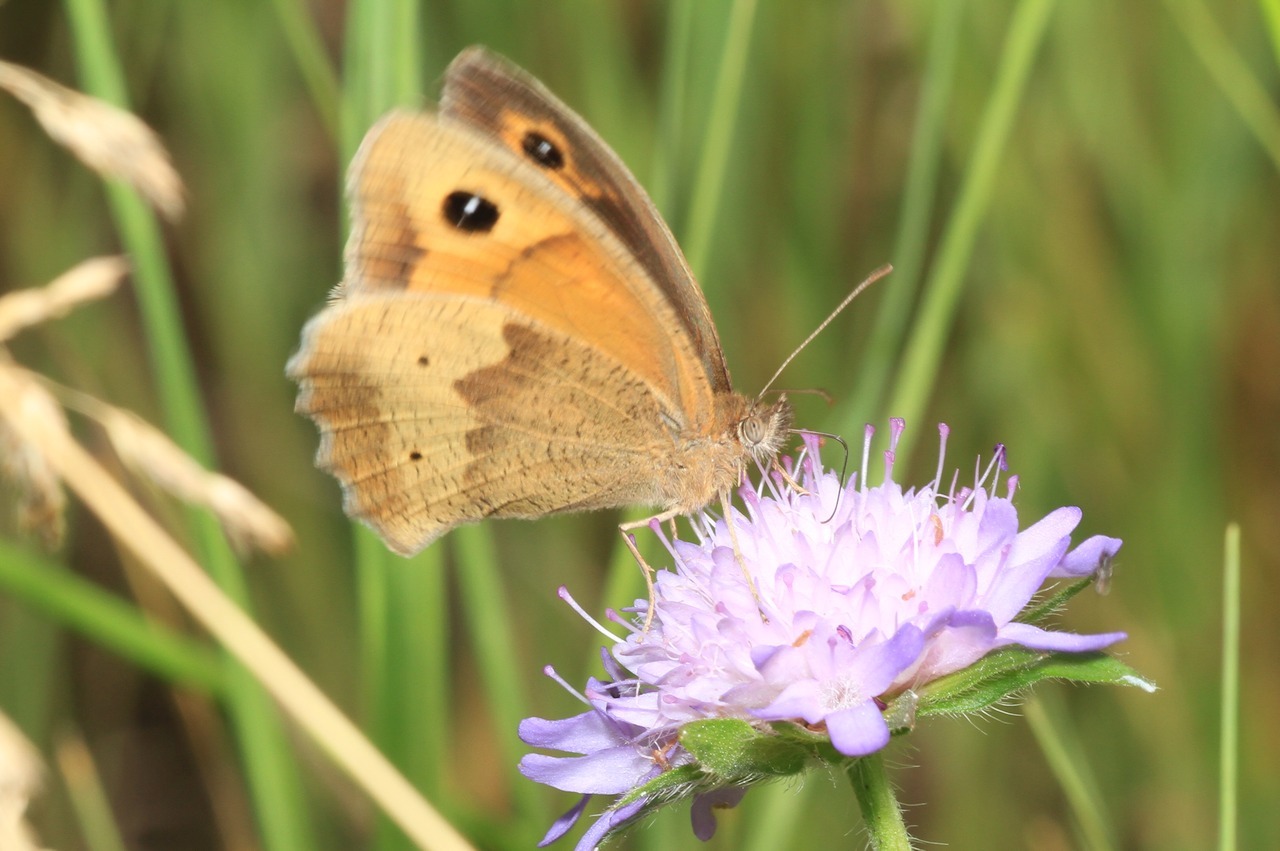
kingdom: Animalia
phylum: Arthropoda
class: Insecta
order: Lepidoptera
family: Nymphalidae
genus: Maniola
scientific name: Maniola jurtina
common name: Meadow brown
